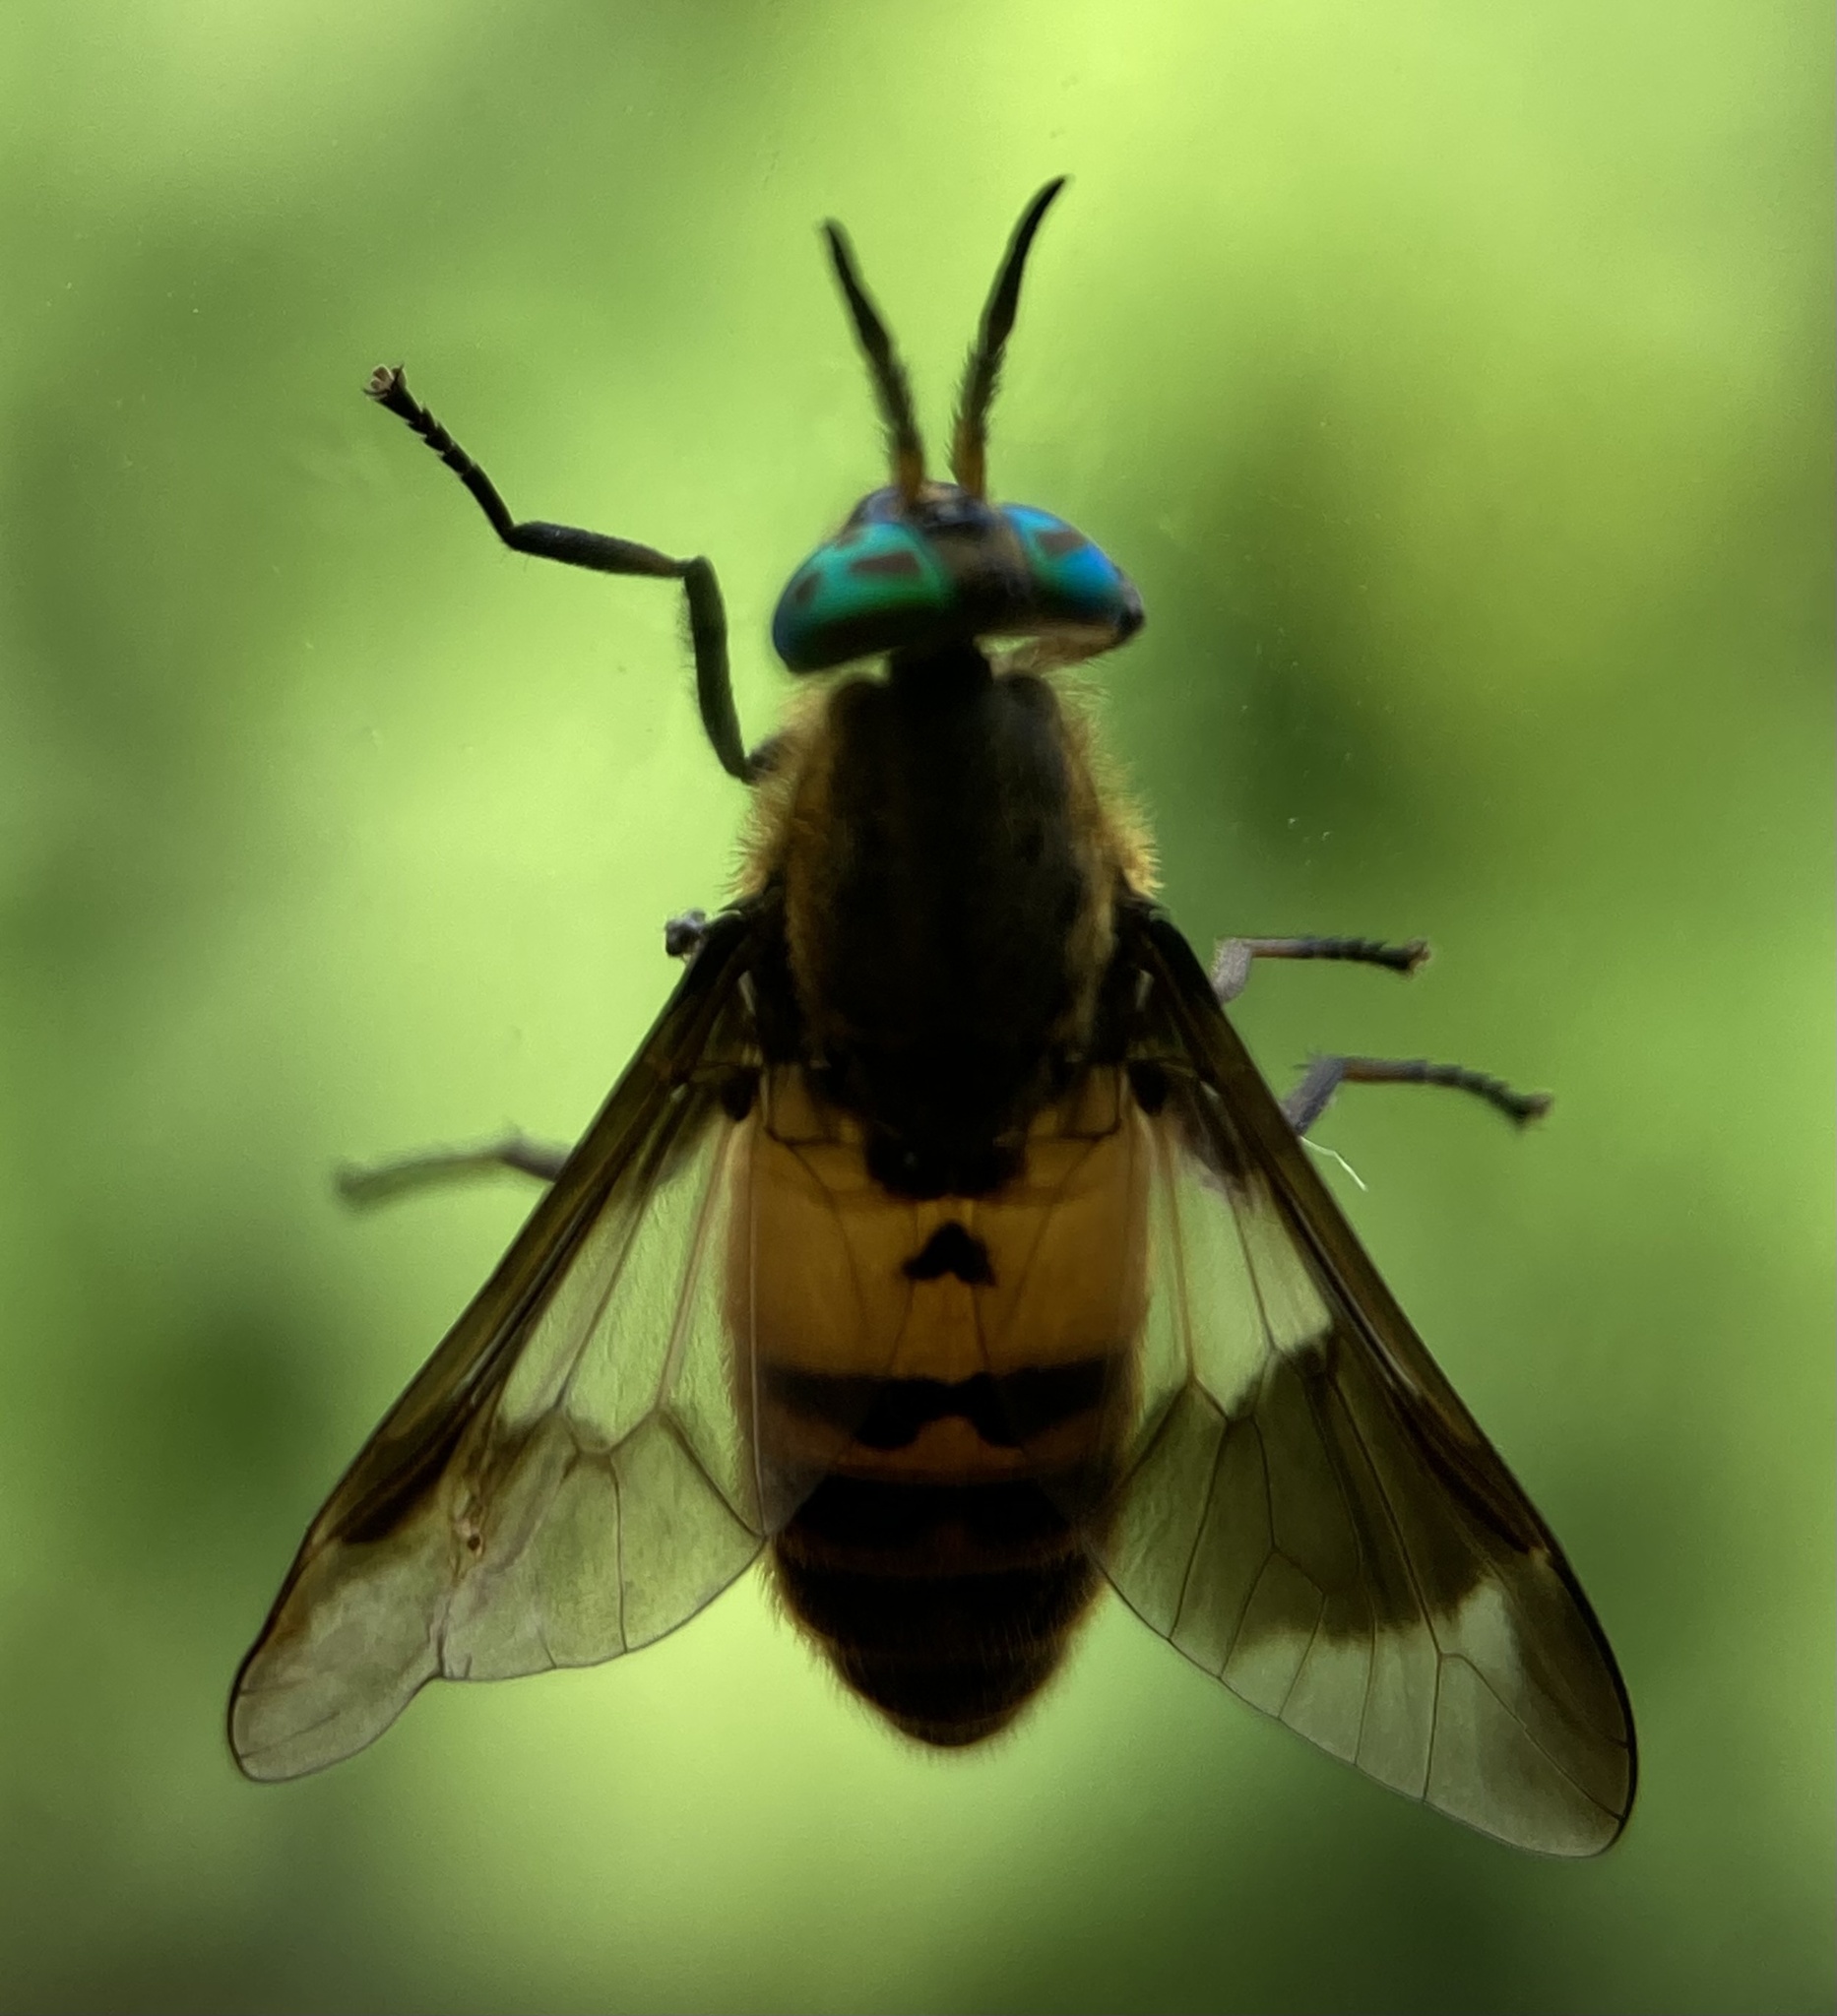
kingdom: Animalia
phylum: Arthropoda
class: Insecta
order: Diptera
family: Tabanidae
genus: Chrysops
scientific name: Chrysops viduatus
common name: Square-spot deerfly
